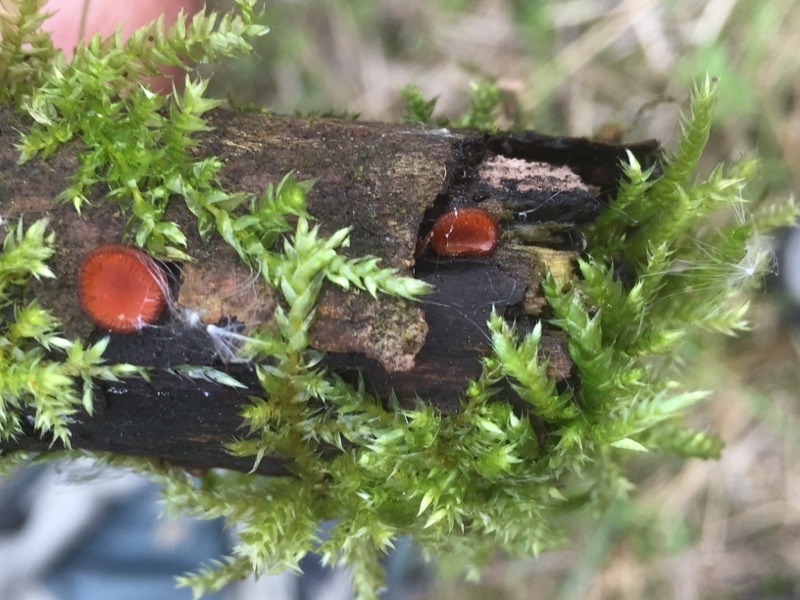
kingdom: Fungi
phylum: Ascomycota
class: Pezizomycetes
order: Pezizales
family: Pyronemataceae
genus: Scutellinia
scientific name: Scutellinia
